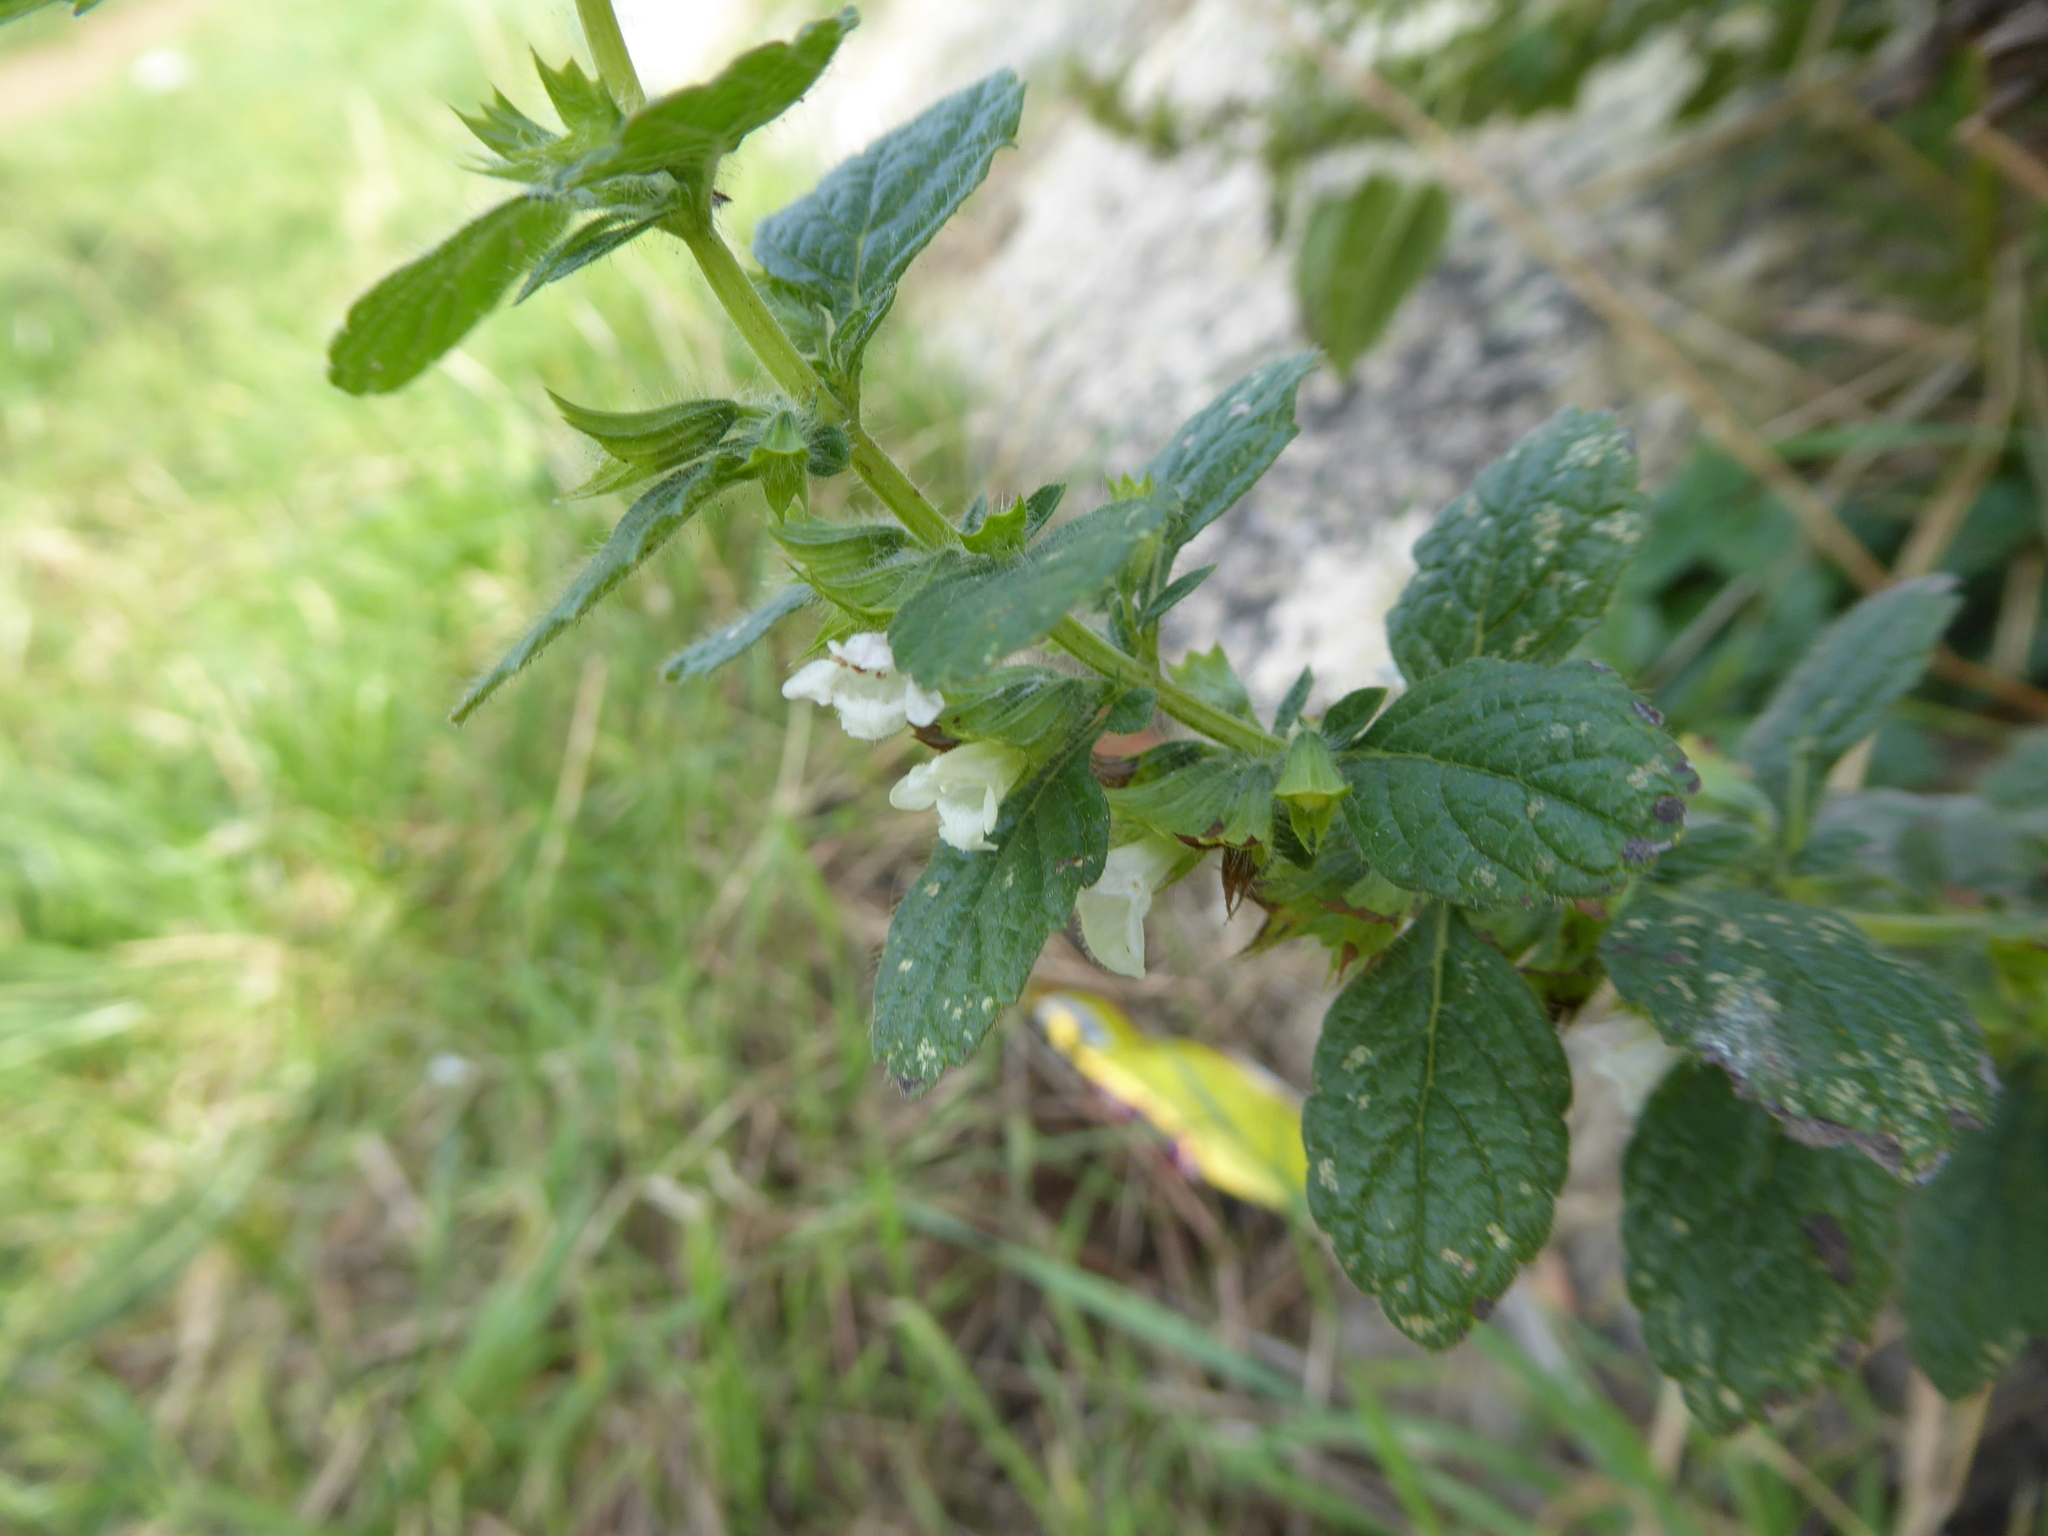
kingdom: Plantae
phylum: Tracheophyta
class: Magnoliopsida
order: Lamiales
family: Lamiaceae
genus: Melissa
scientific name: Melissa officinalis
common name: Balm
